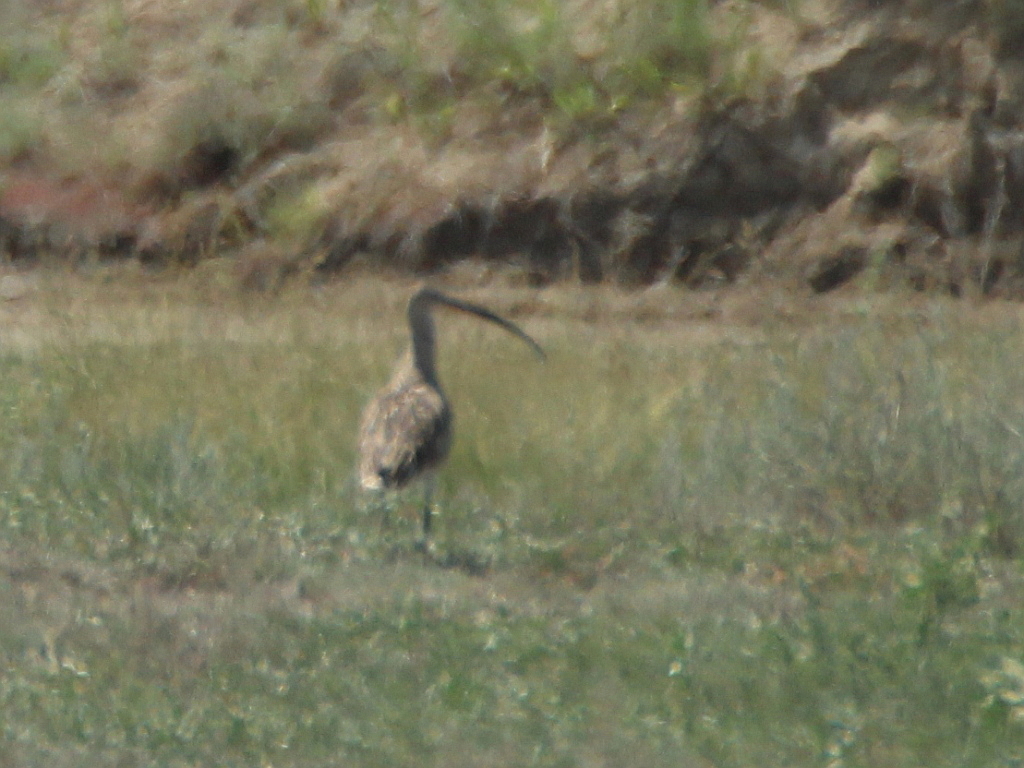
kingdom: Animalia
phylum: Chordata
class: Aves
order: Charadriiformes
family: Scolopacidae
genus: Numenius
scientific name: Numenius arquata
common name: Eurasian curlew
